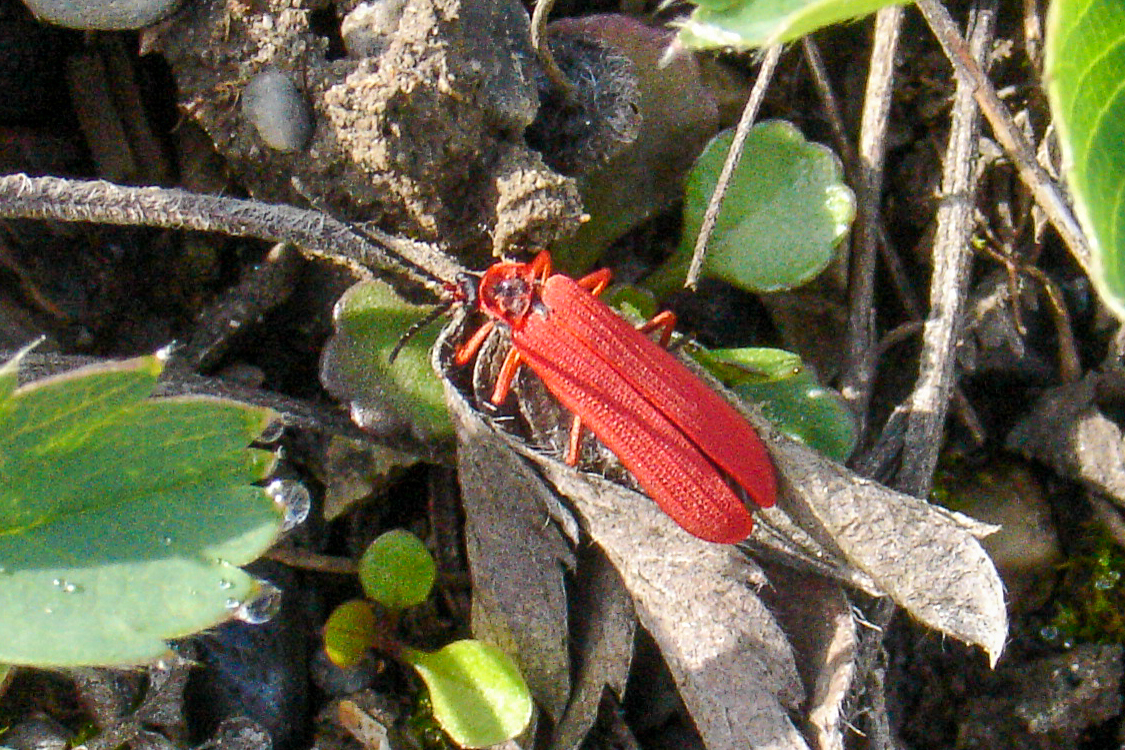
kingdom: Animalia
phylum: Arthropoda
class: Insecta
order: Coleoptera
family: Lycidae
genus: Dictyoptera
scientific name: Dictyoptera simplicipes
